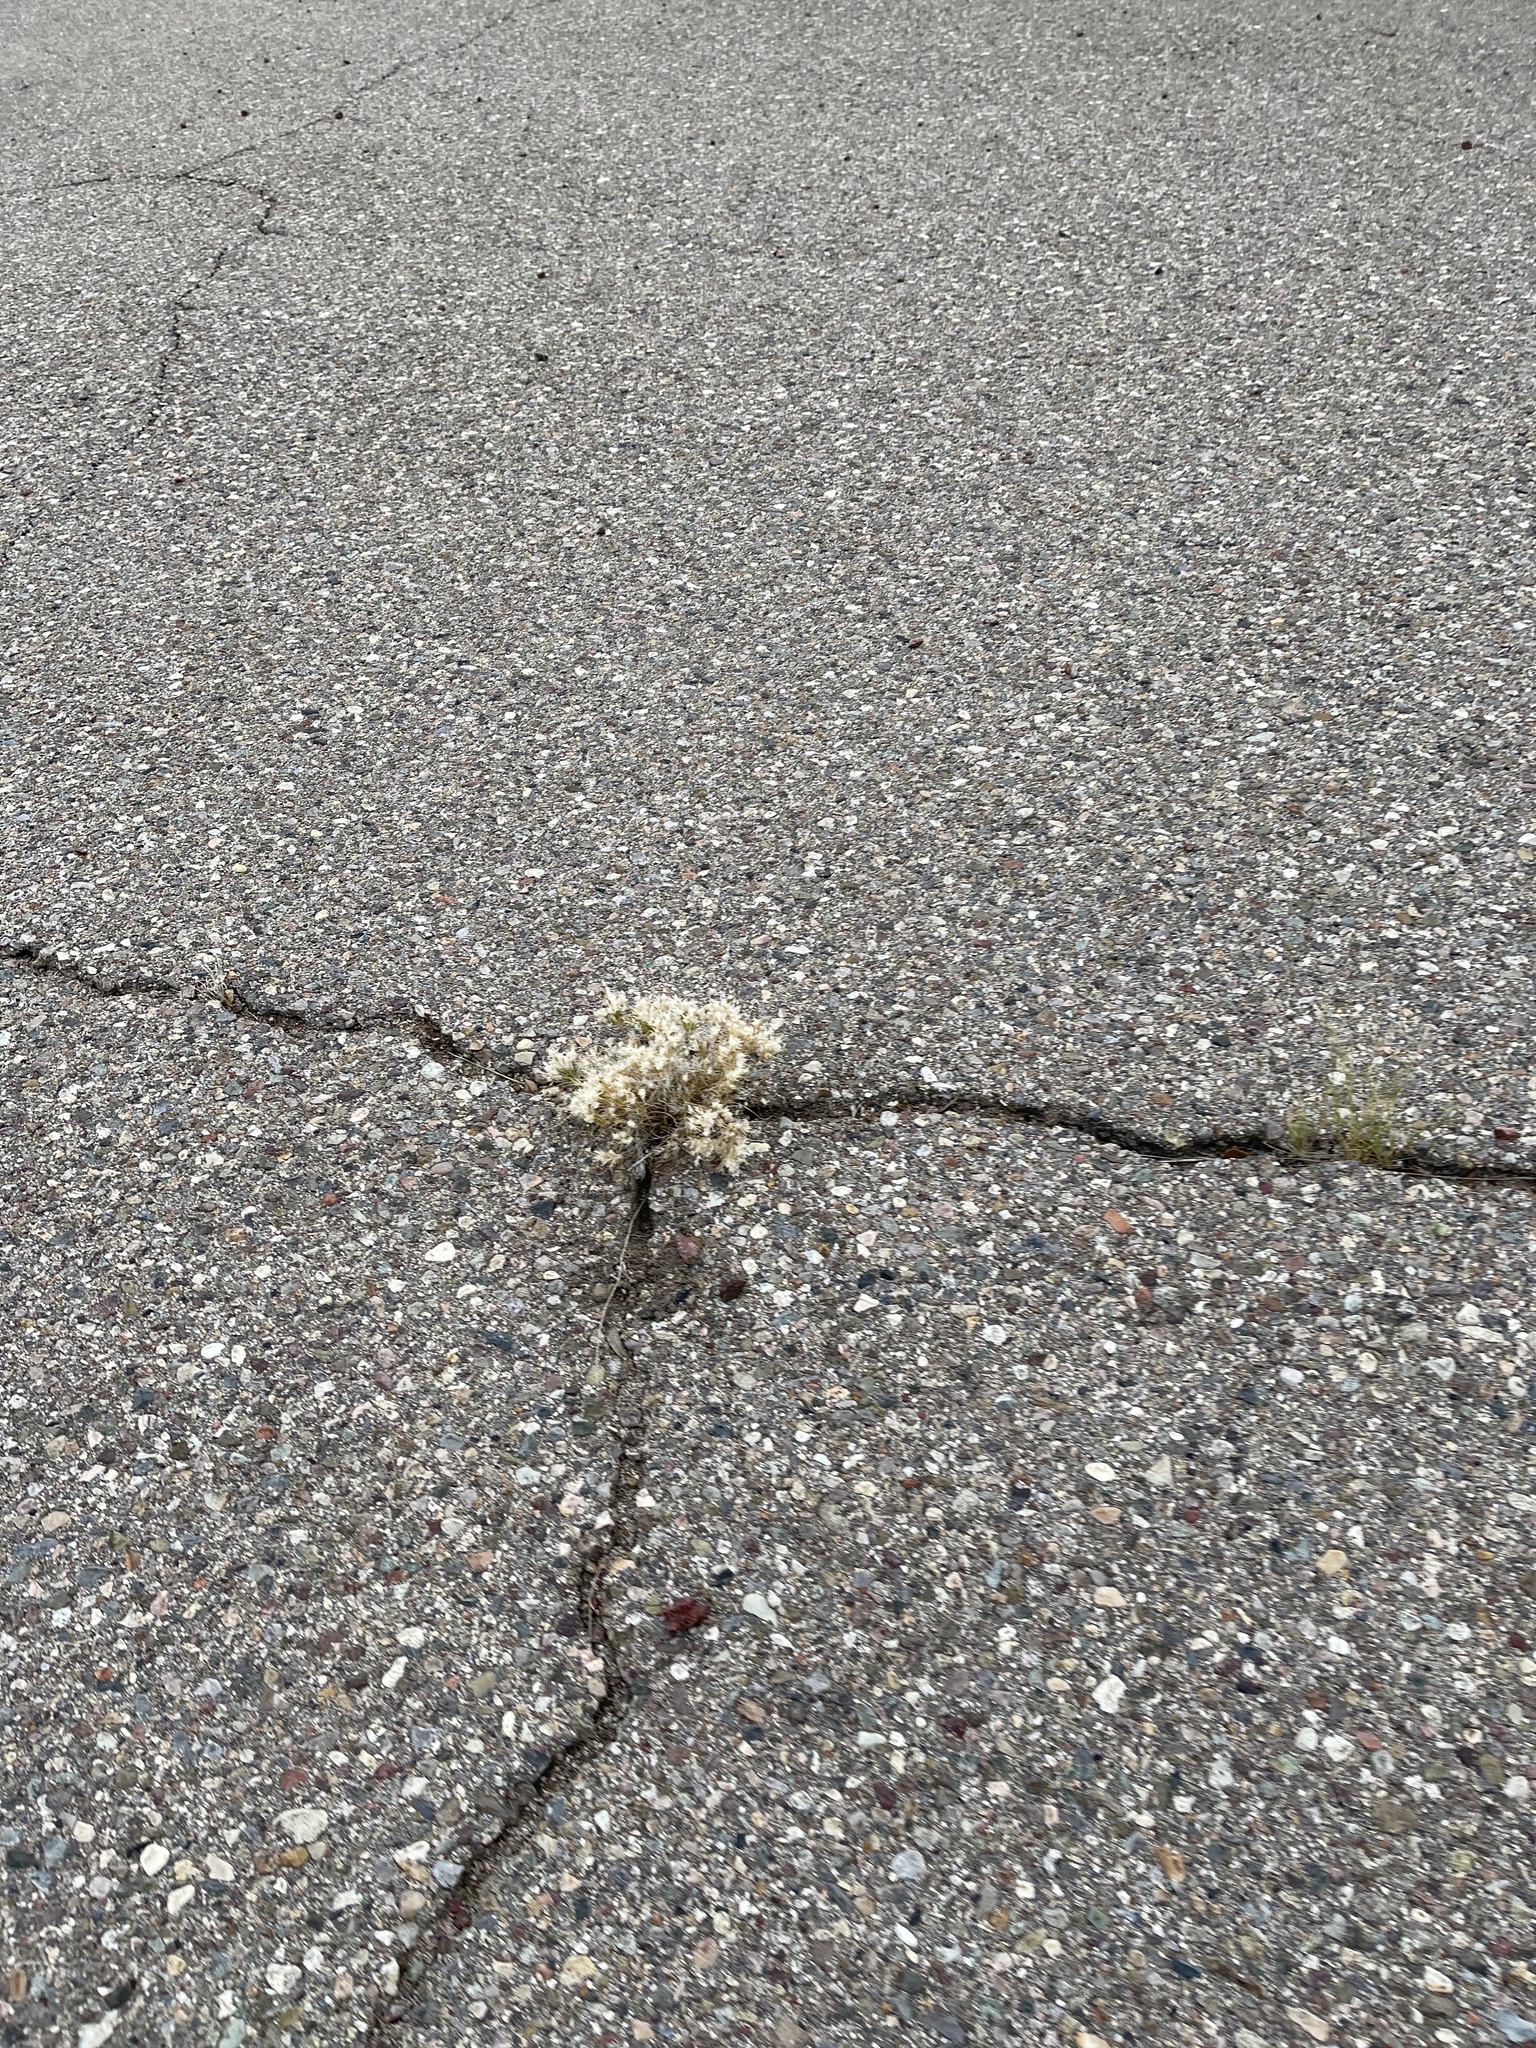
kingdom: Plantae
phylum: Tracheophyta
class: Liliopsida
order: Poales
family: Poaceae
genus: Dasyochloa
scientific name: Dasyochloa pulchella
